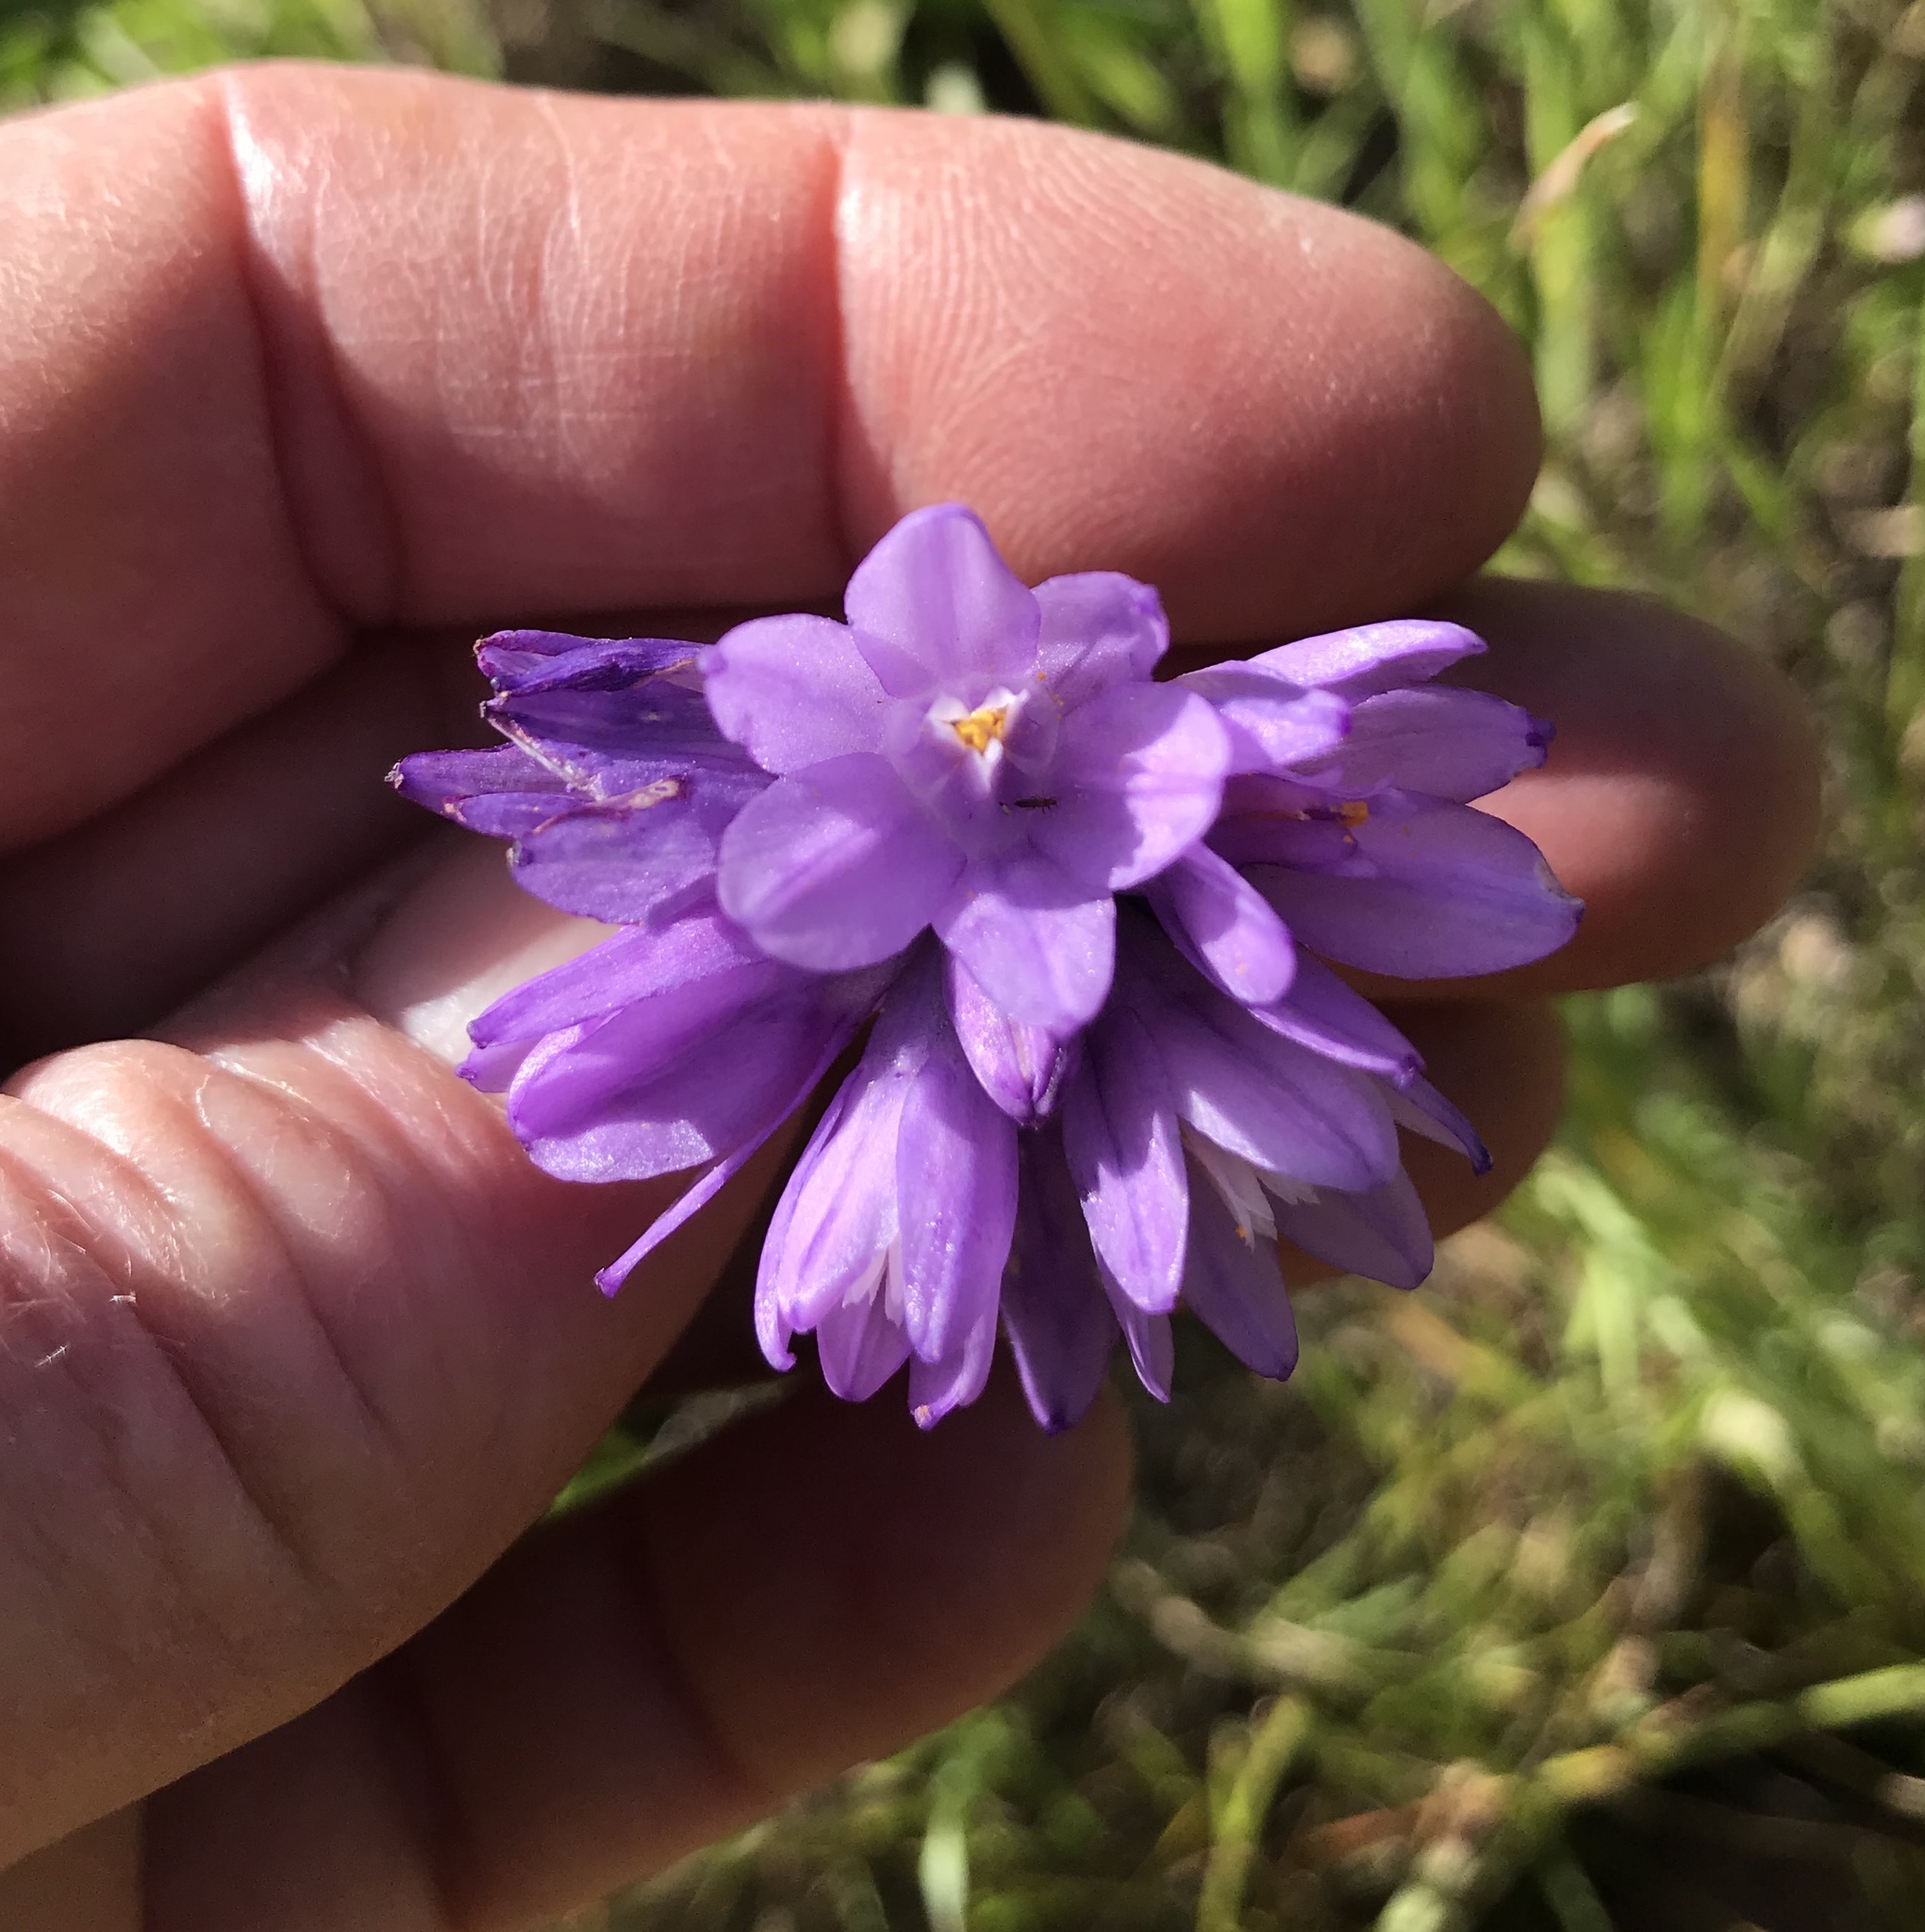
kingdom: Plantae
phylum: Tracheophyta
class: Liliopsida
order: Asparagales
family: Asparagaceae
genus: Dipterostemon
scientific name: Dipterostemon capitatus
